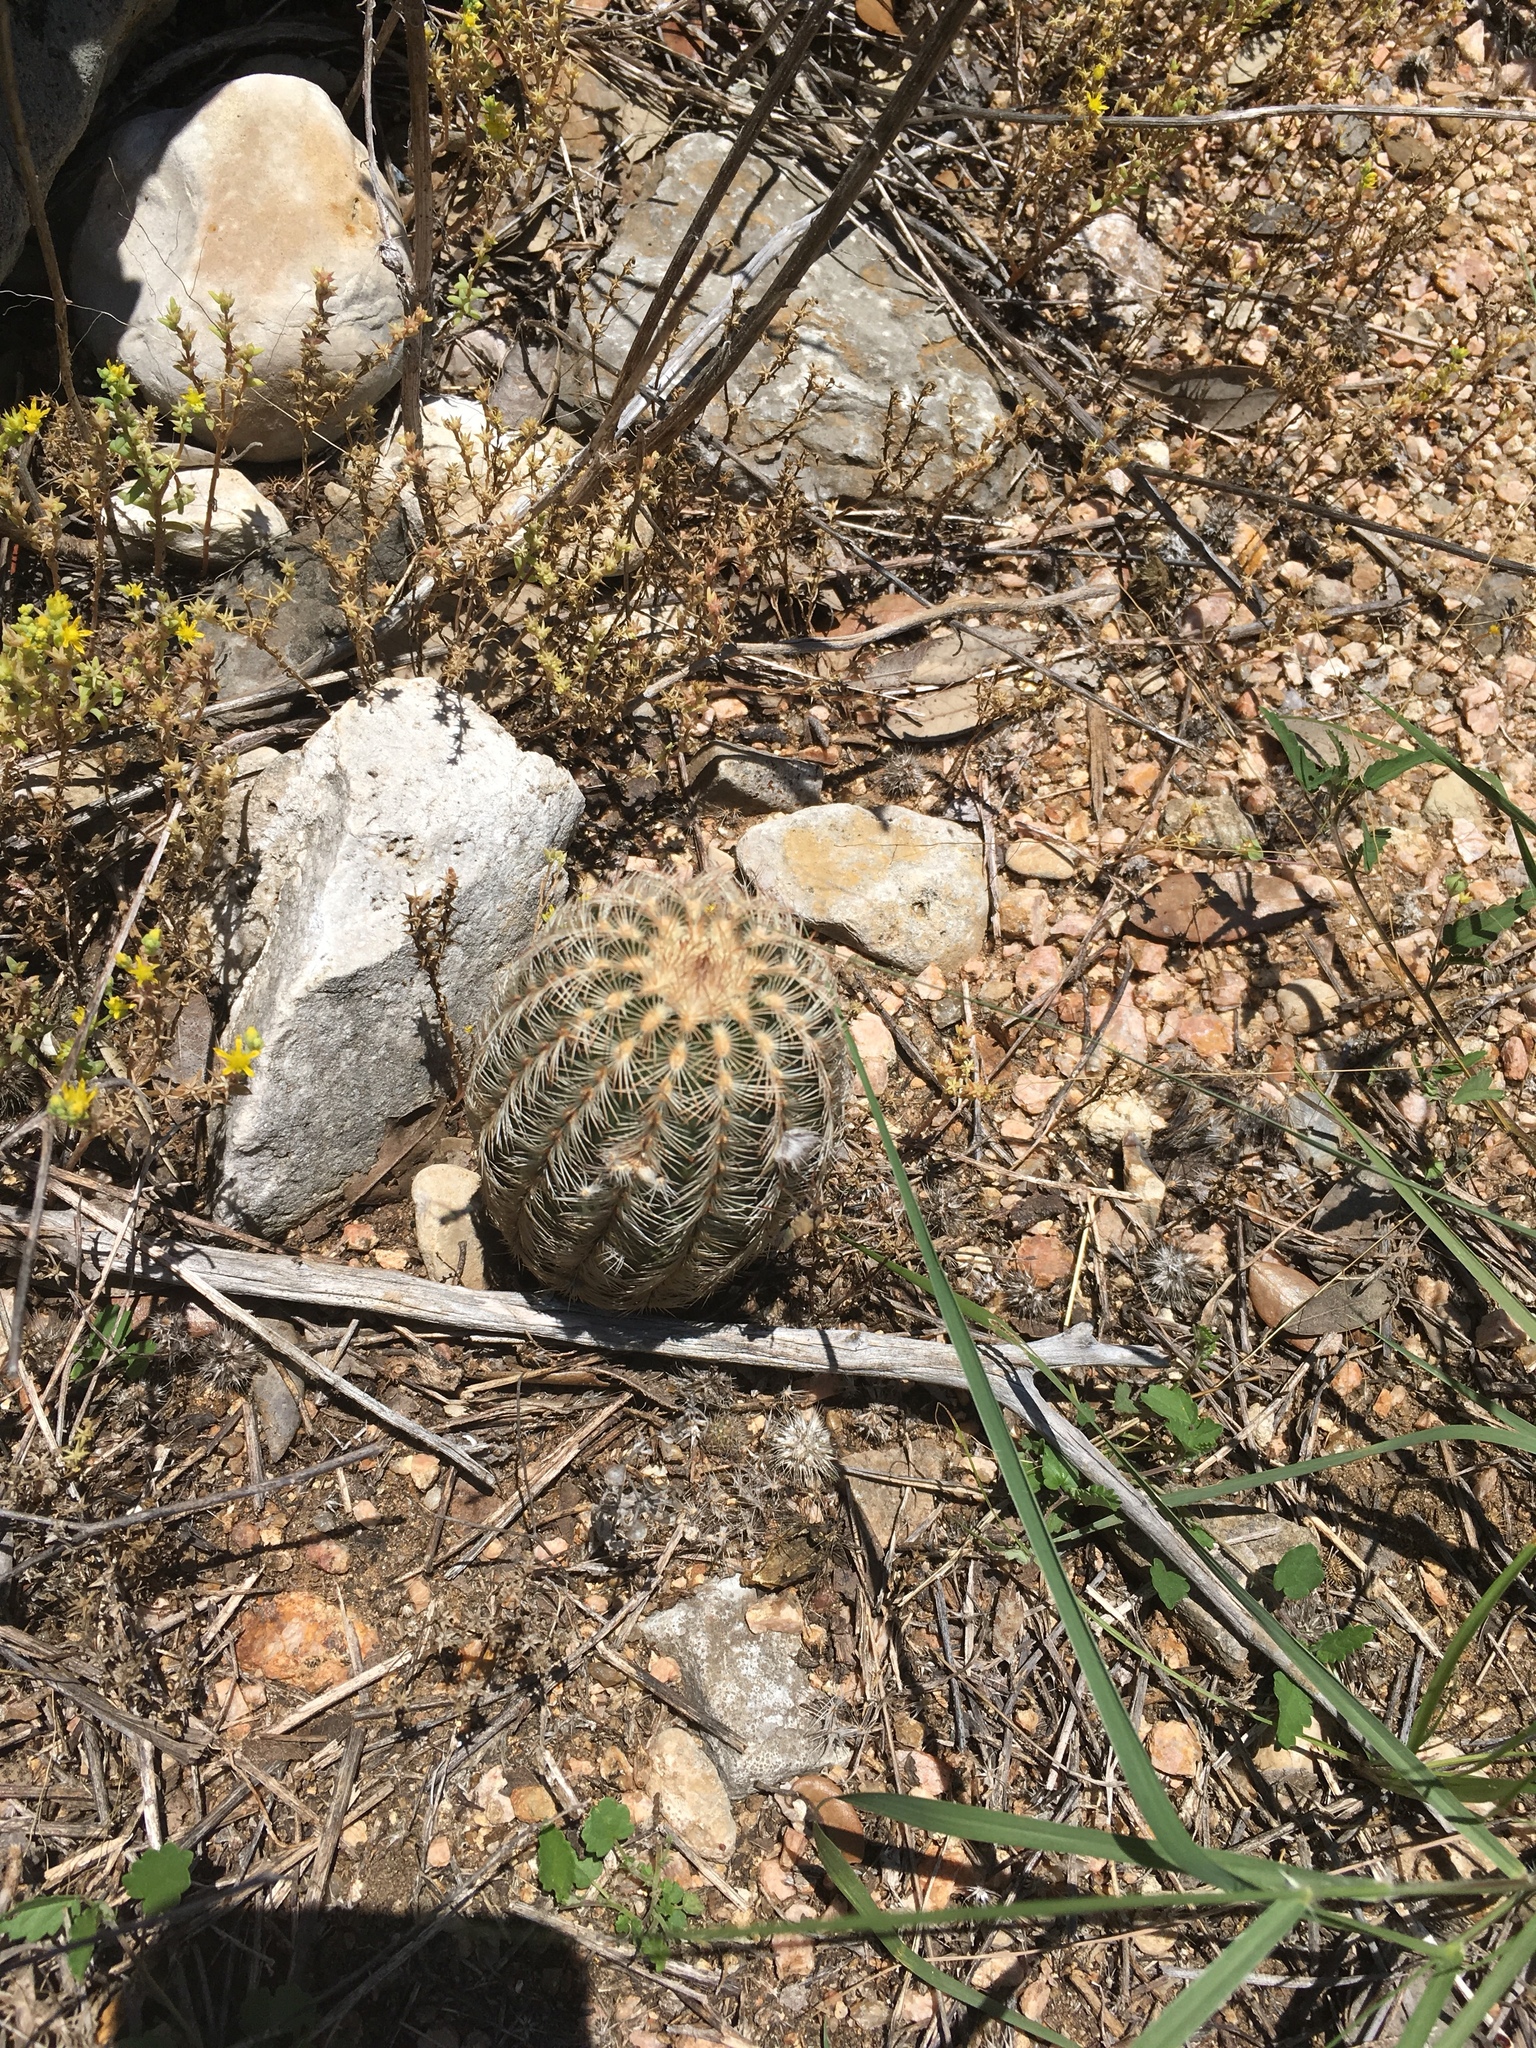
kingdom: Plantae
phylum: Tracheophyta
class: Magnoliopsida
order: Caryophyllales
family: Cactaceae
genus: Echinocereus
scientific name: Echinocereus reichenbachii
